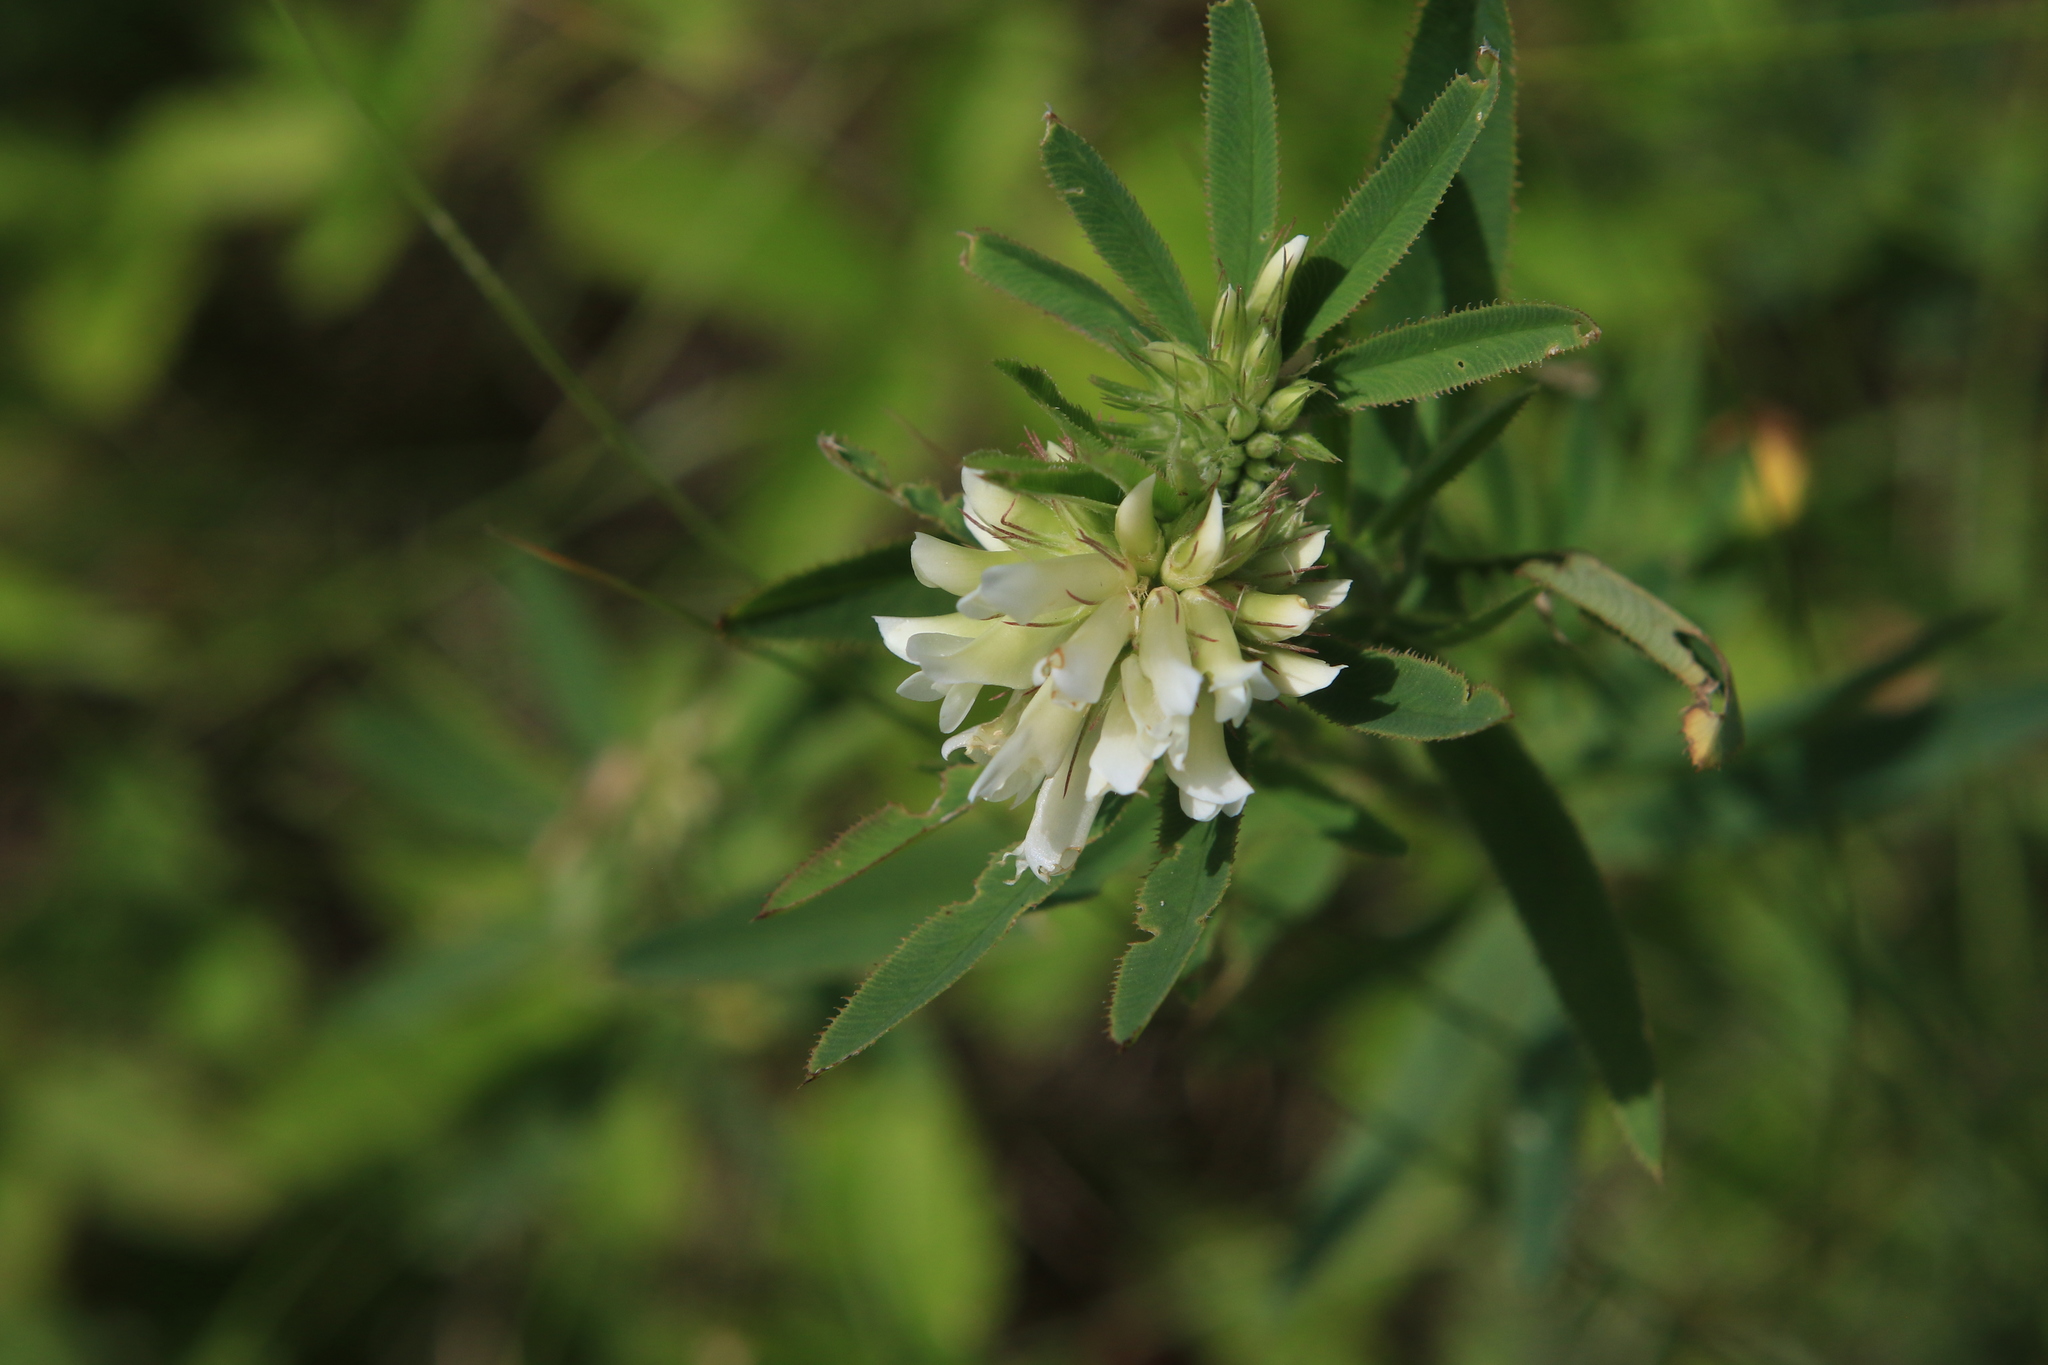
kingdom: Plantae
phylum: Tracheophyta
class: Magnoliopsida
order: Fabales
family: Fabaceae
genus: Trifolium
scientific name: Trifolium lupinaster
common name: Lupine clover
